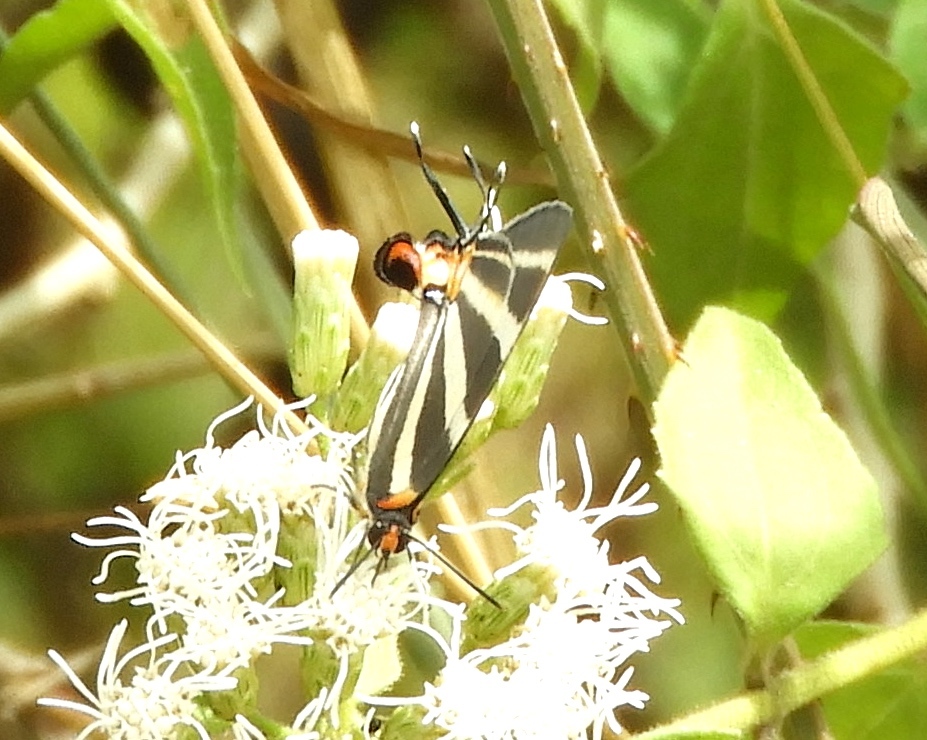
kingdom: Animalia
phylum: Arthropoda
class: Insecta
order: Lepidoptera
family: Lycaenidae
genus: Thecla
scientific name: Thecla bathildis
